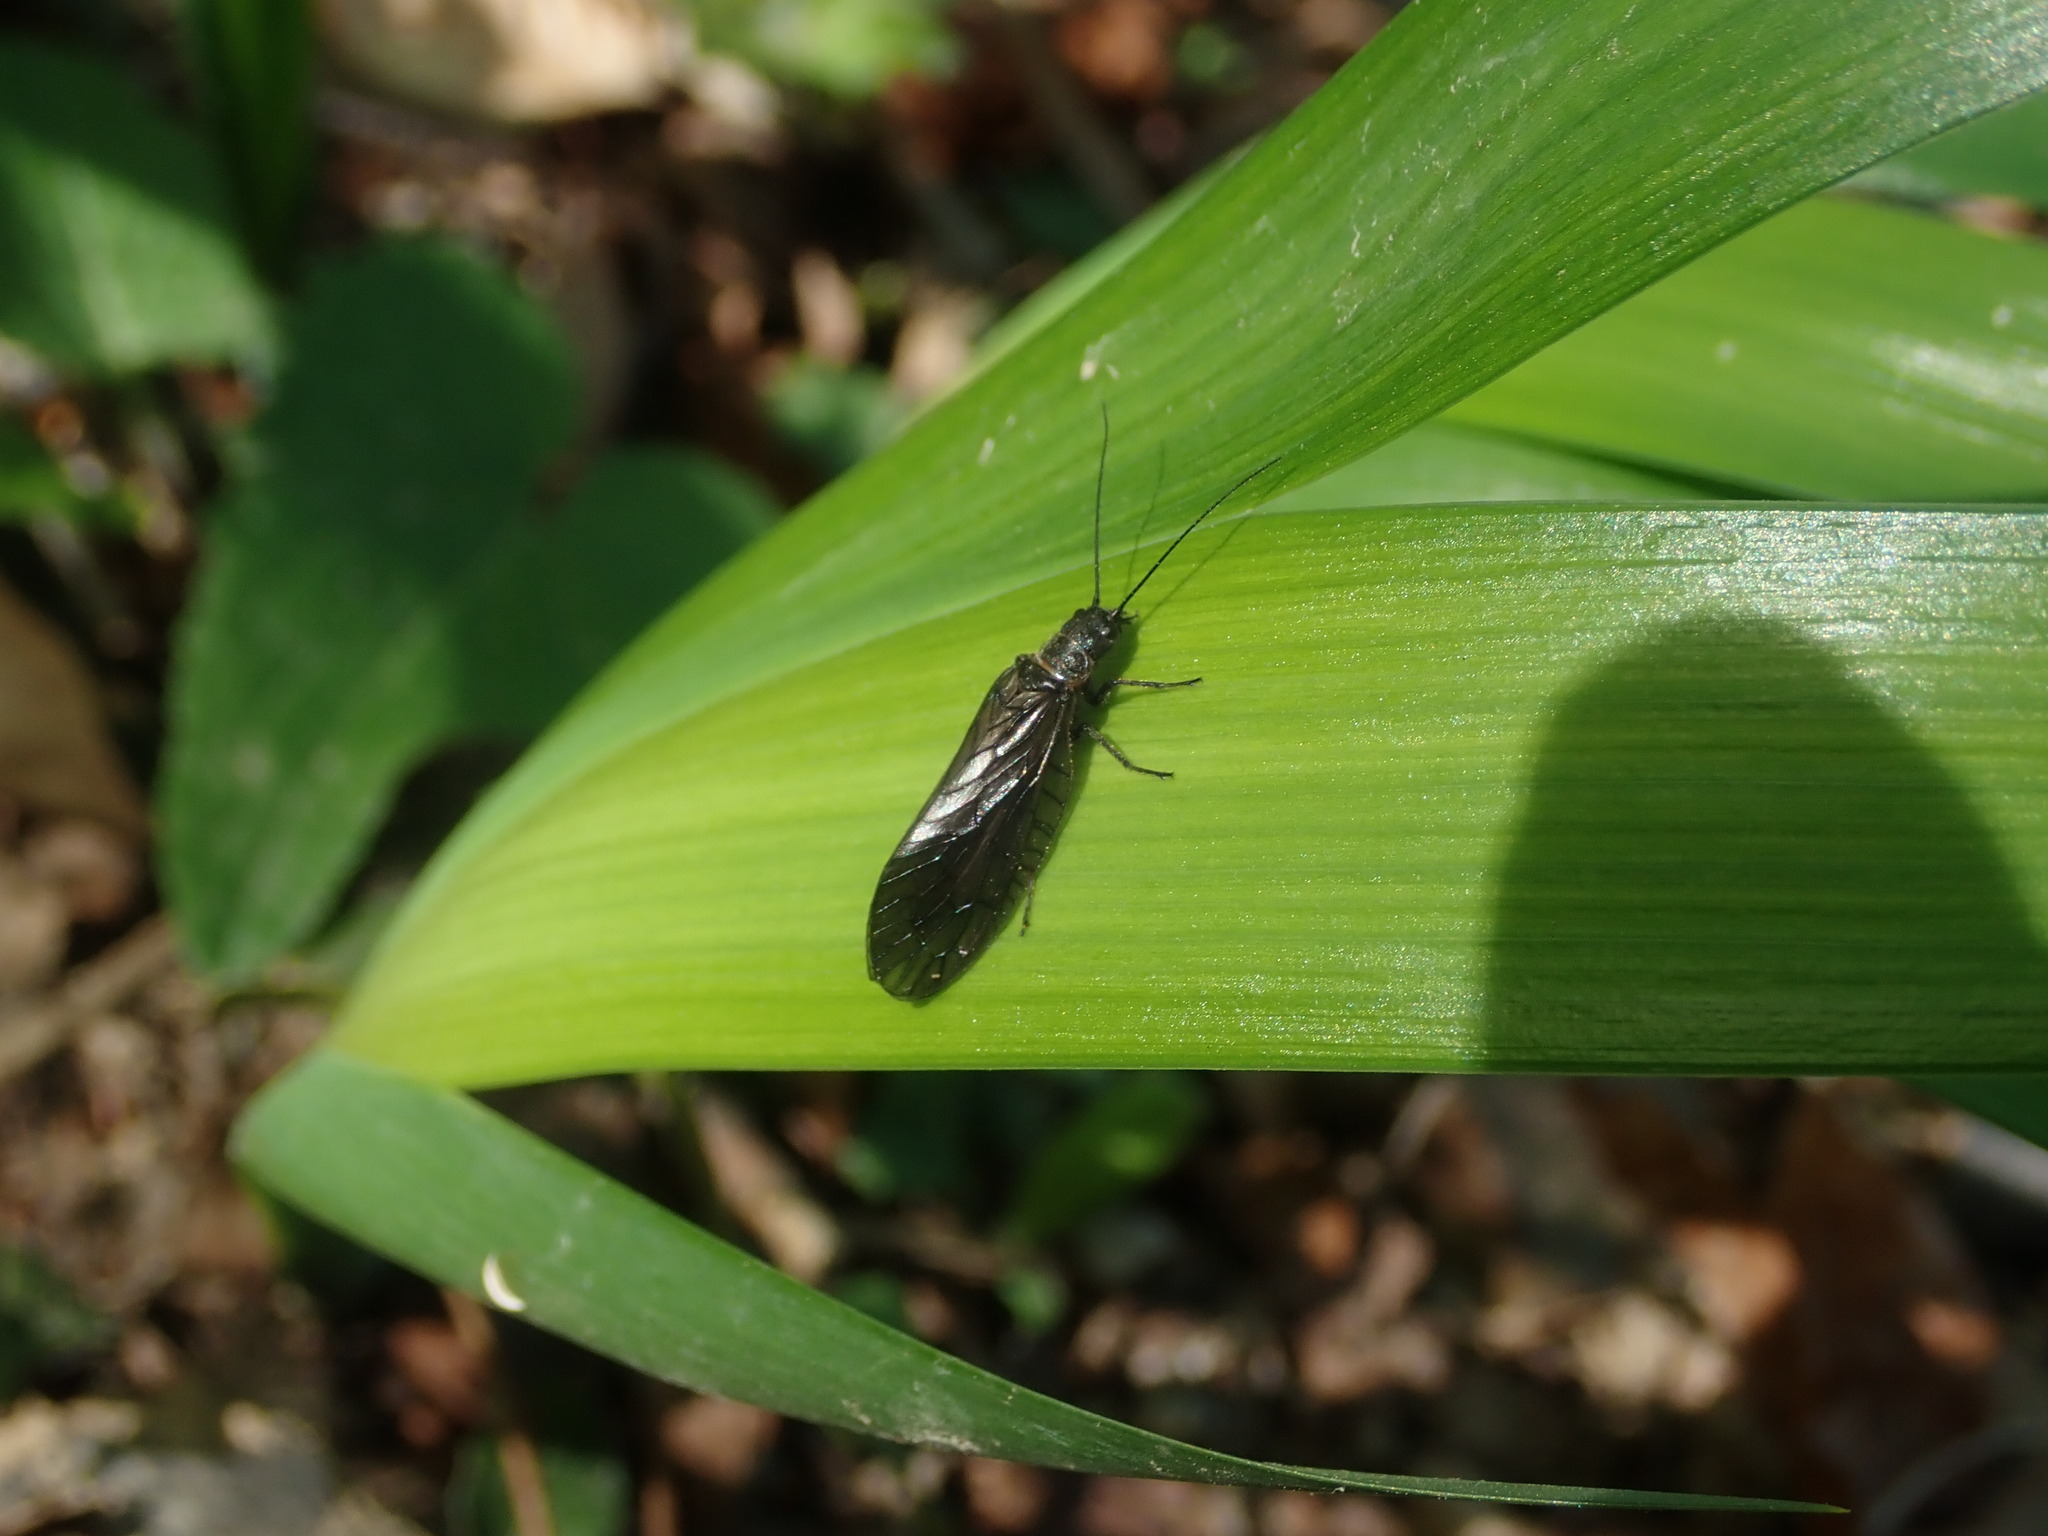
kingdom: Animalia
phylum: Arthropoda
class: Insecta
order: Megaloptera
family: Sialidae
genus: Sialis
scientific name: Sialis
